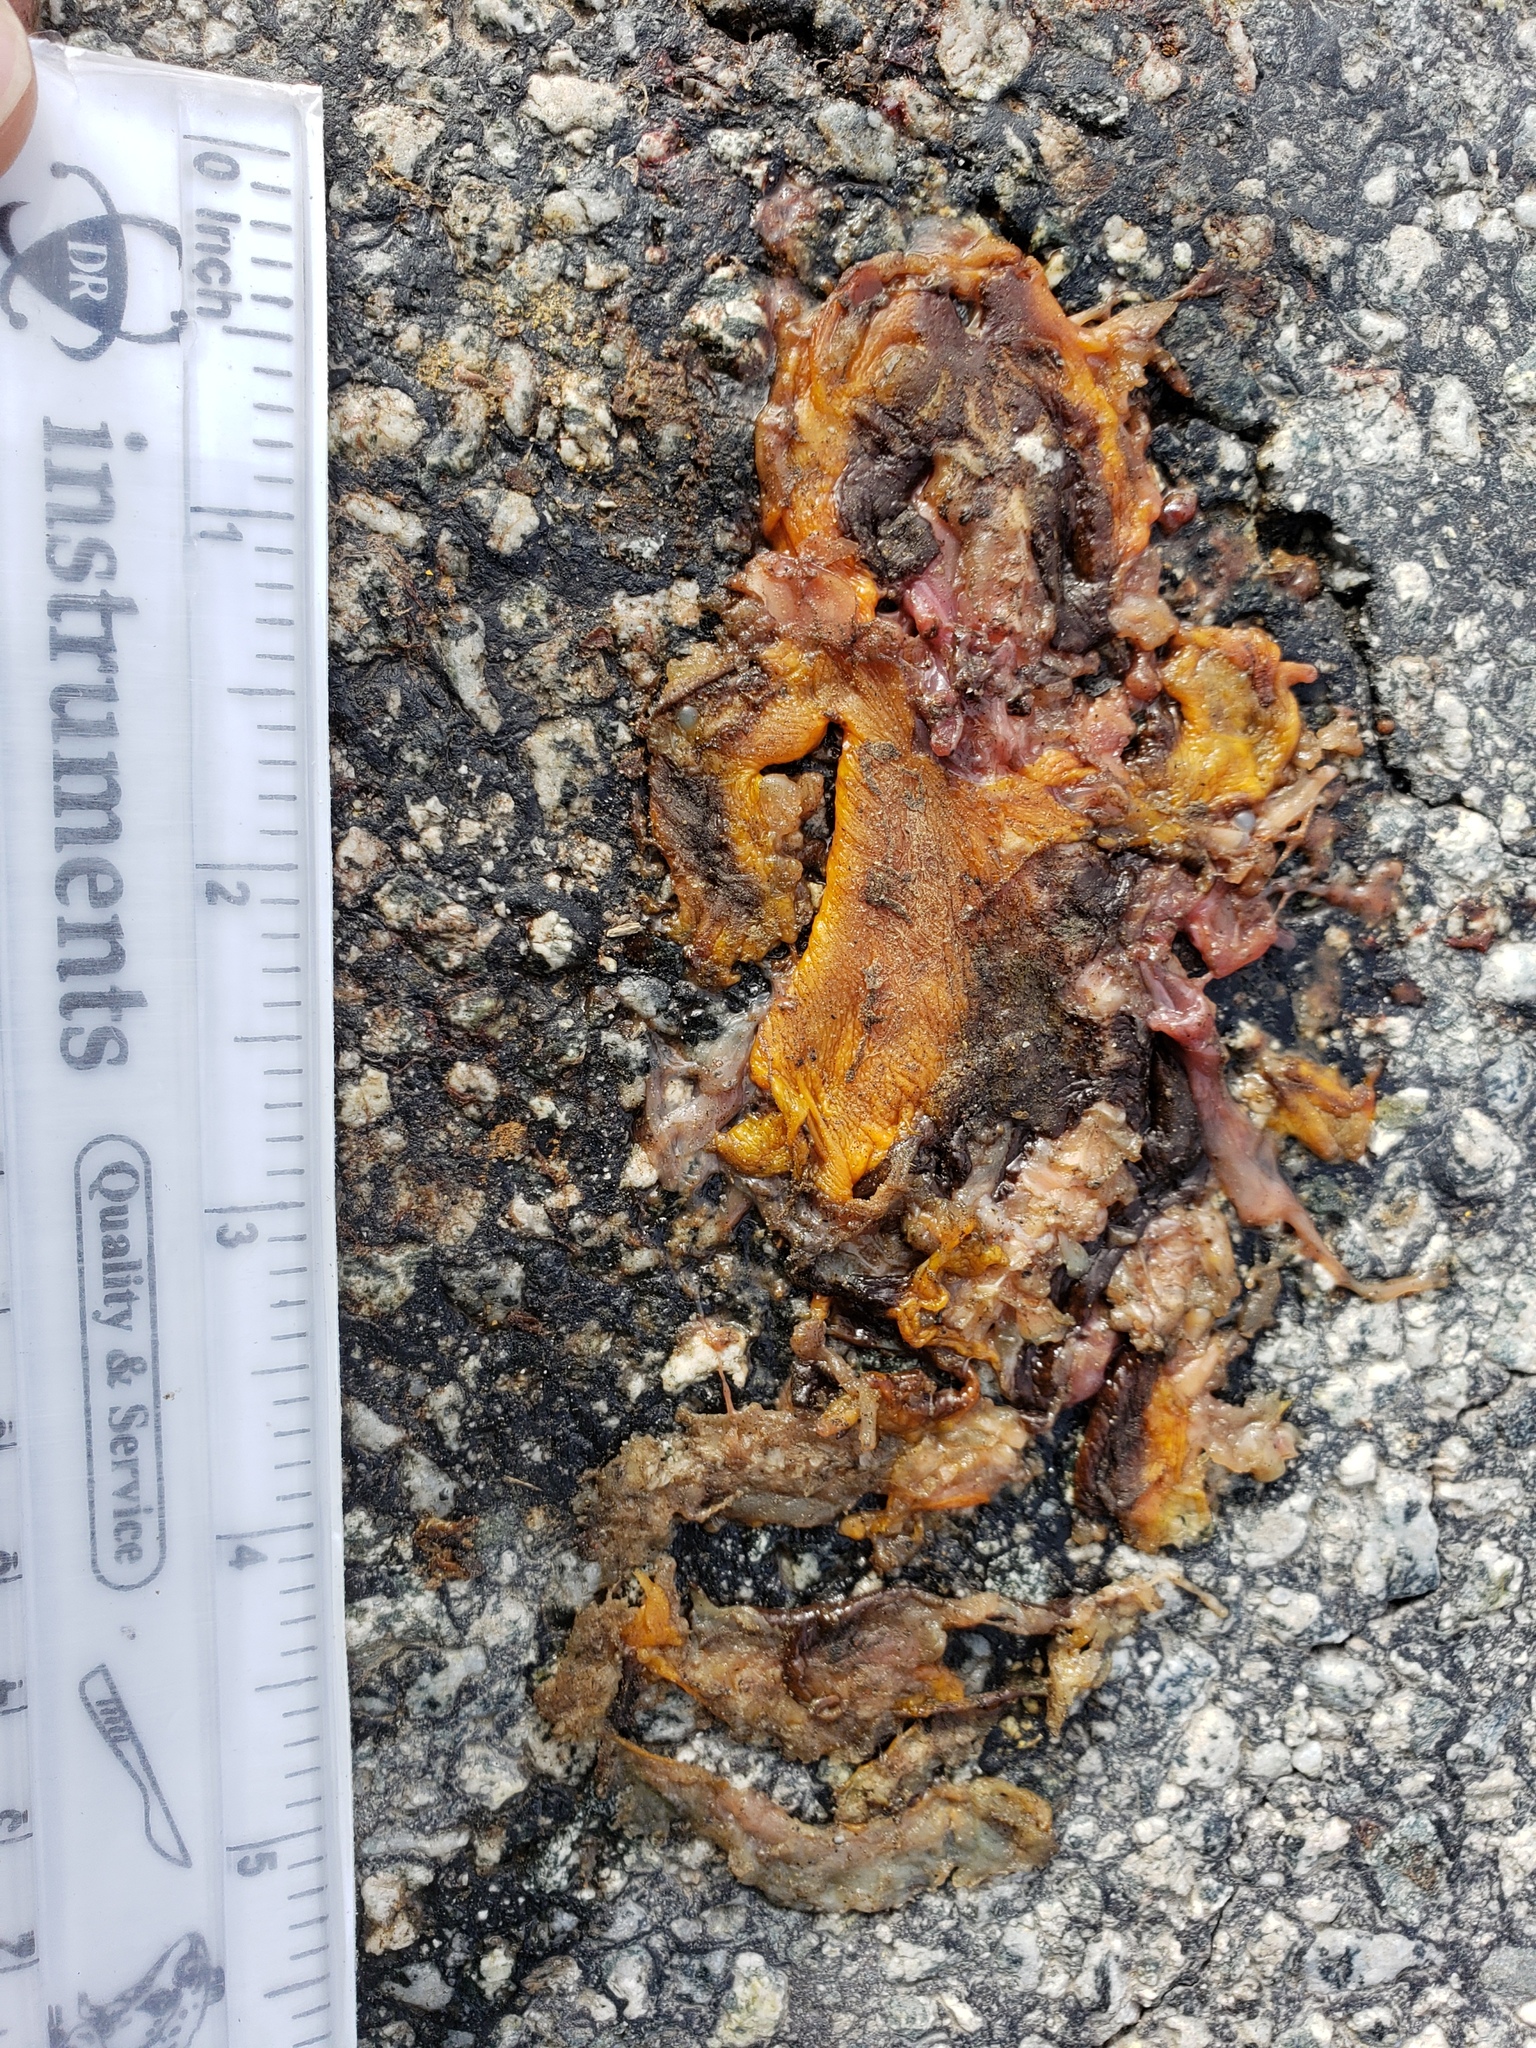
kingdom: Animalia
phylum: Chordata
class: Amphibia
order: Caudata
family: Salamandridae
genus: Taricha
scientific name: Taricha
